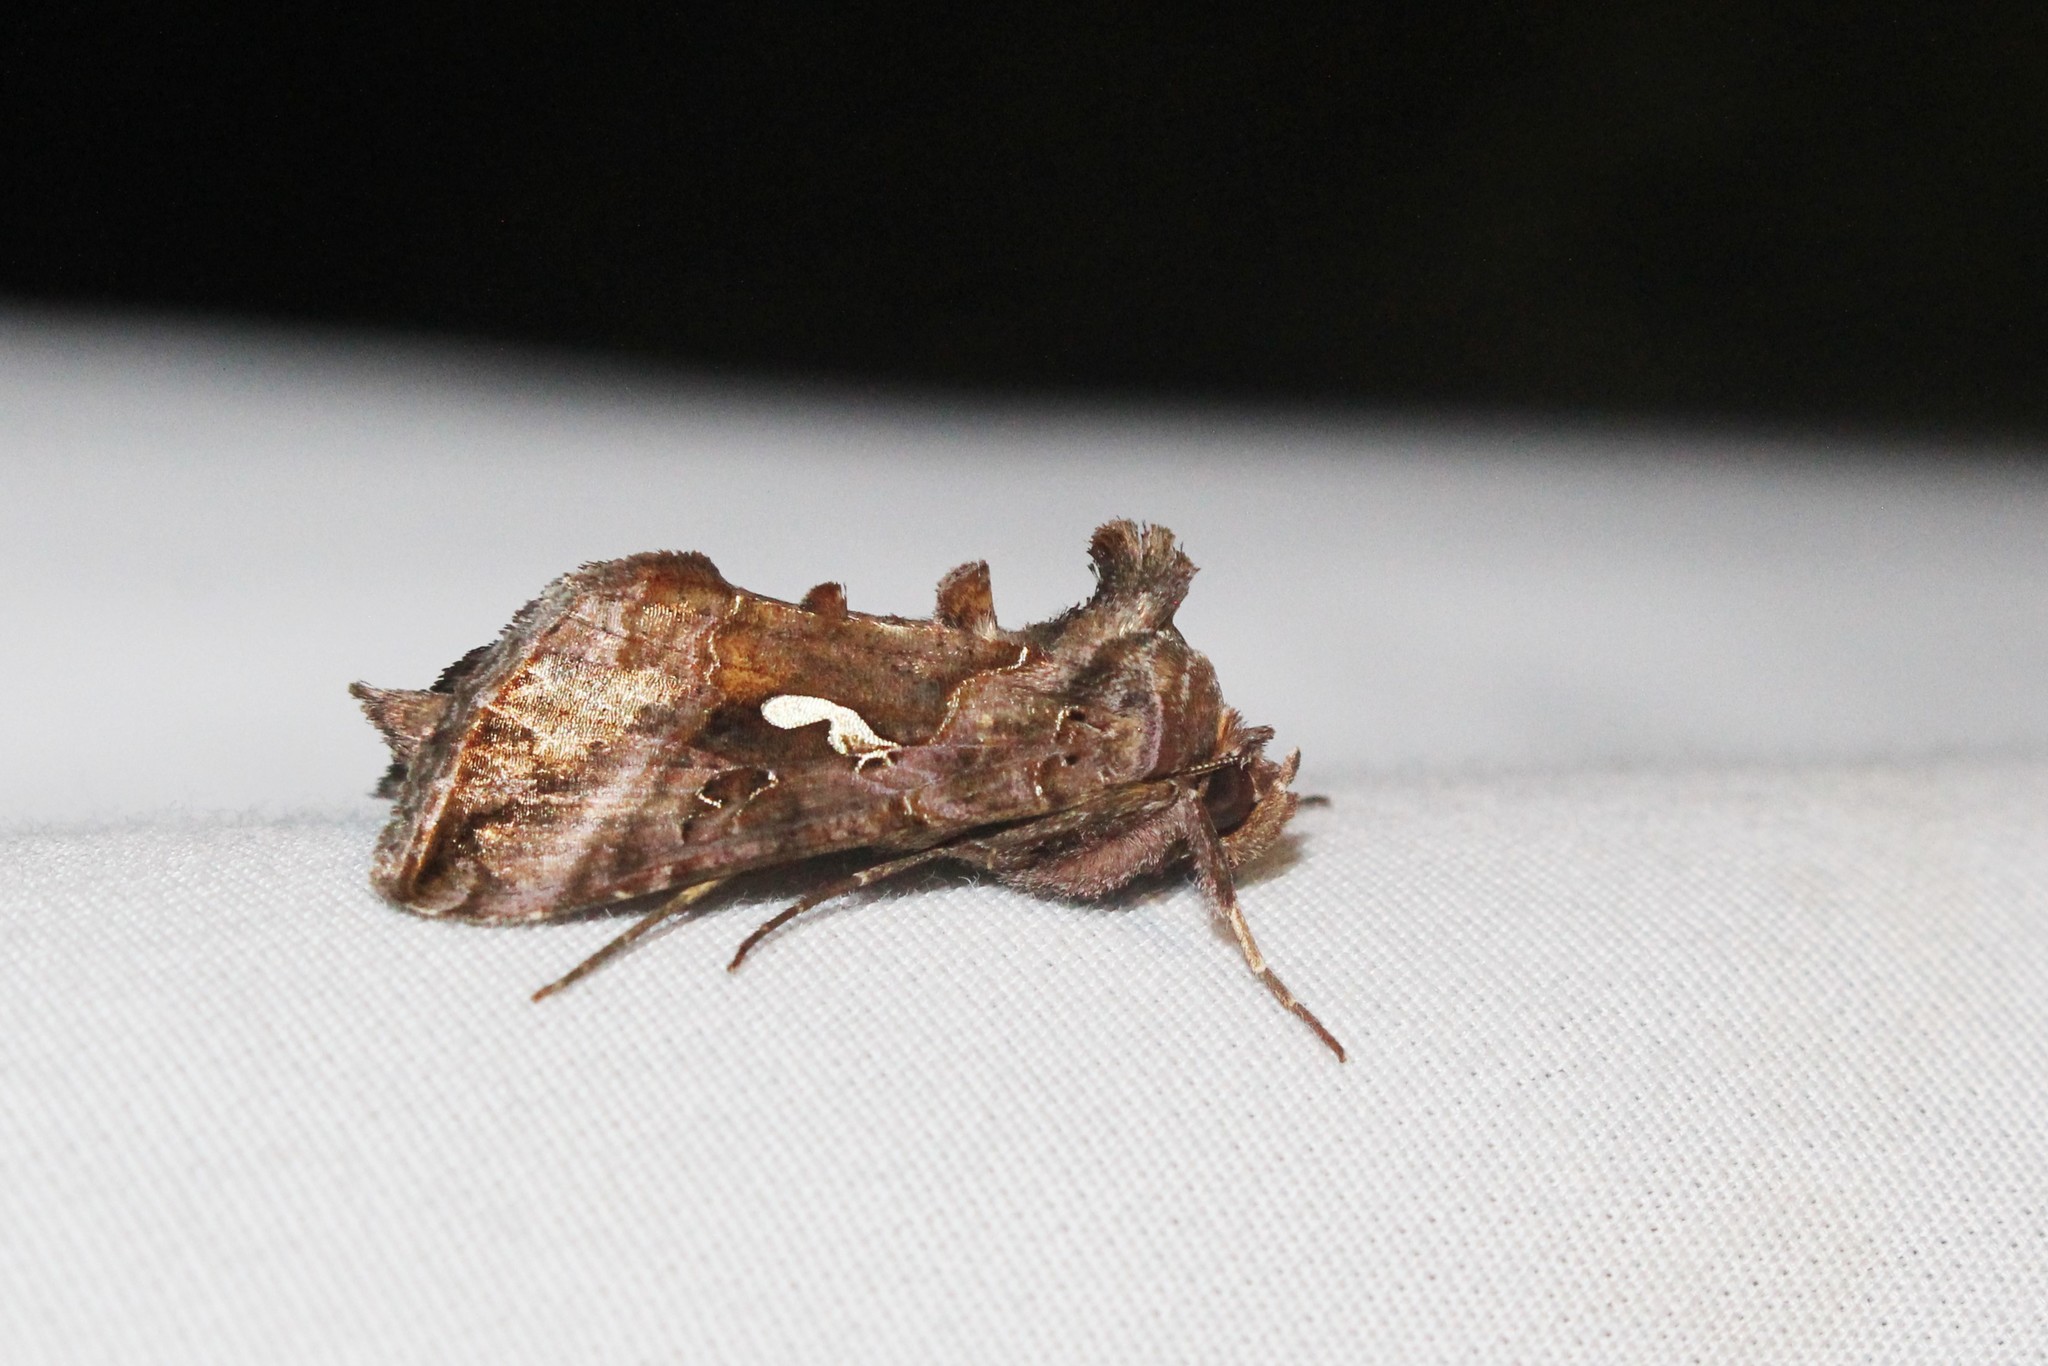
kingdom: Animalia
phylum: Arthropoda
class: Insecta
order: Lepidoptera
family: Noctuidae
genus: Autographa
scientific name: Autographa precationis
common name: Common looper moth
